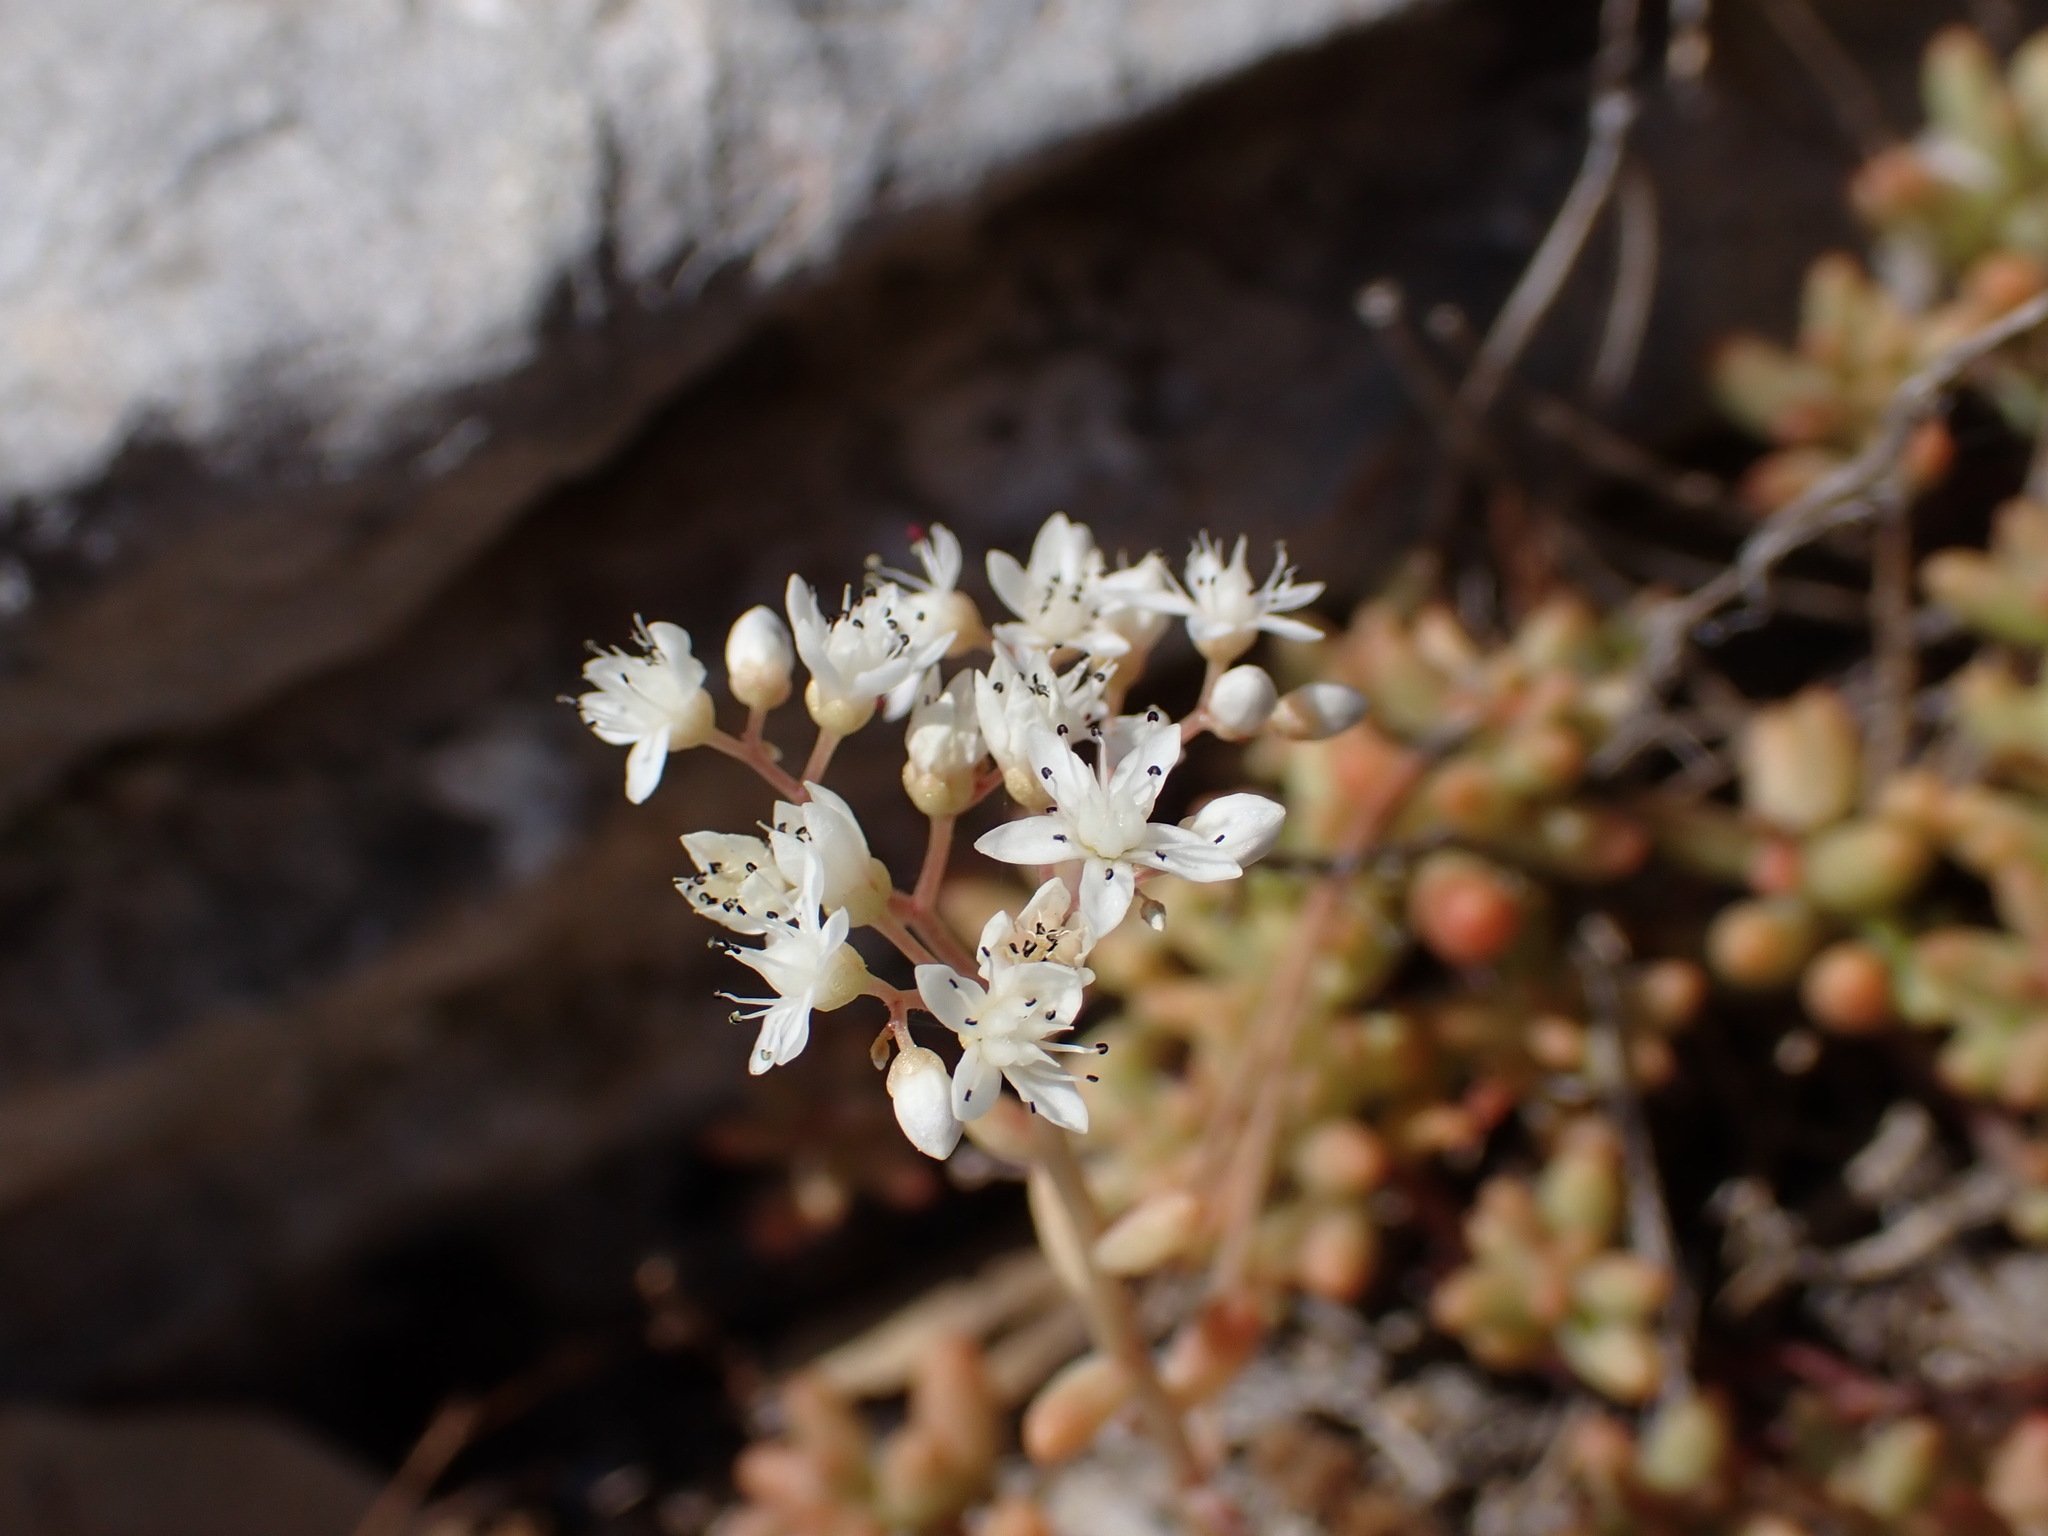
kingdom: Plantae
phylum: Tracheophyta
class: Magnoliopsida
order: Saxifragales
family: Crassulaceae
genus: Sedum
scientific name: Sedum album
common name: White stonecrop
